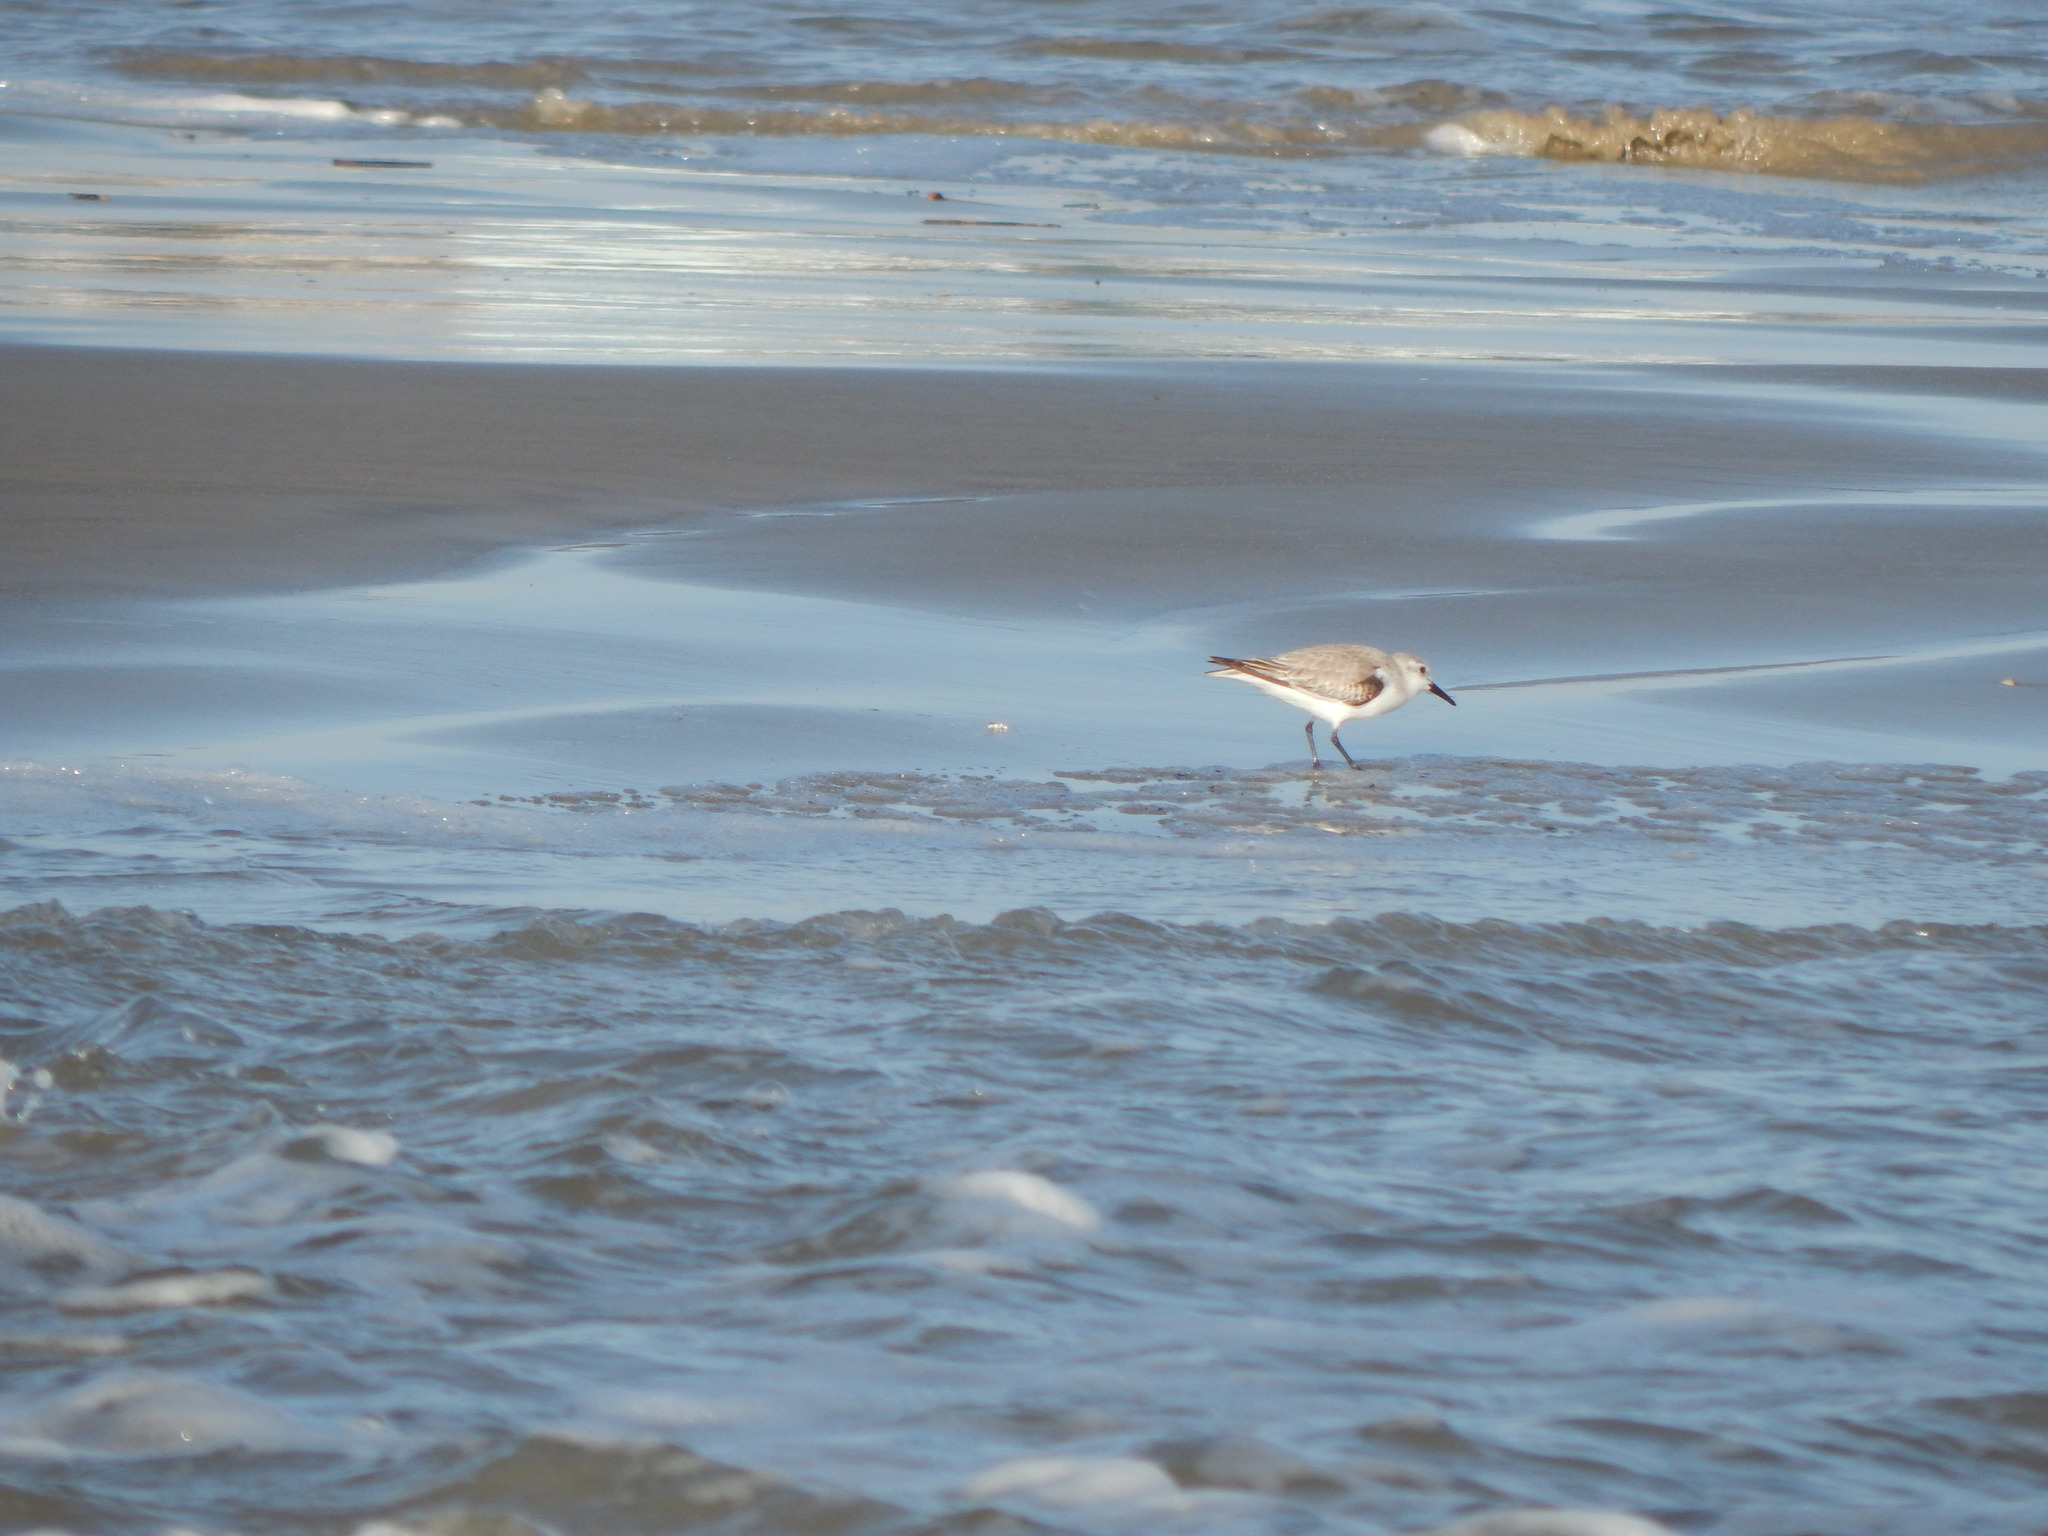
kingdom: Animalia
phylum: Chordata
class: Aves
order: Charadriiformes
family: Scolopacidae
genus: Calidris
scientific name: Calidris alba
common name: Sanderling
